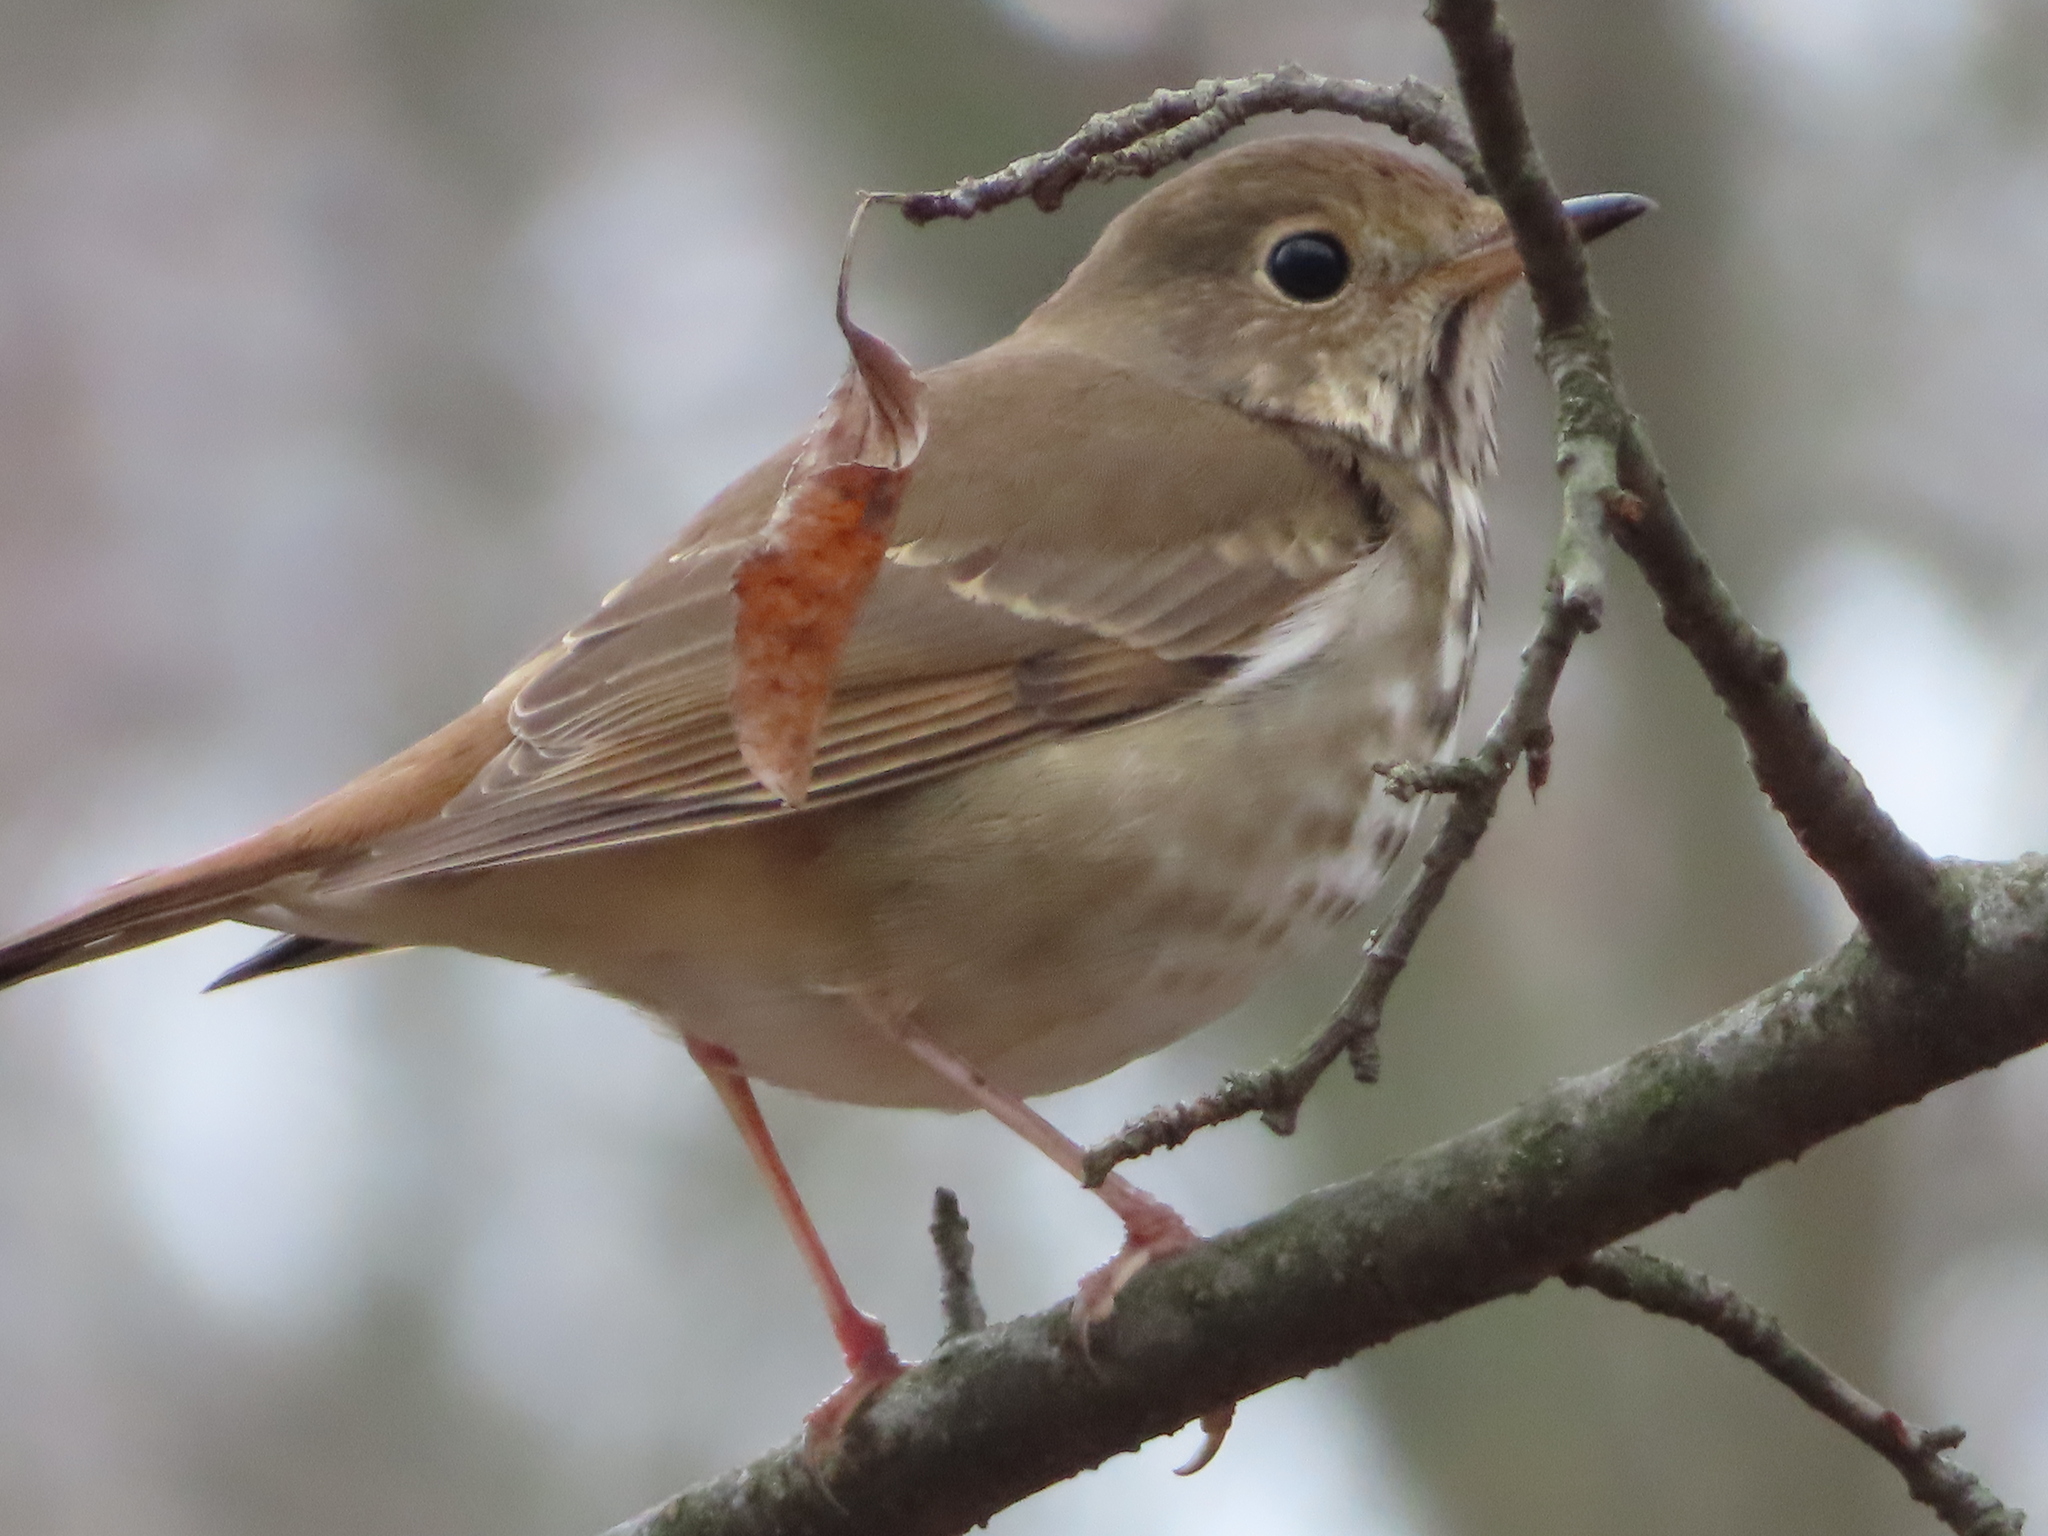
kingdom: Animalia
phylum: Chordata
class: Aves
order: Passeriformes
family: Turdidae
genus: Catharus
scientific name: Catharus guttatus
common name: Hermit thrush
